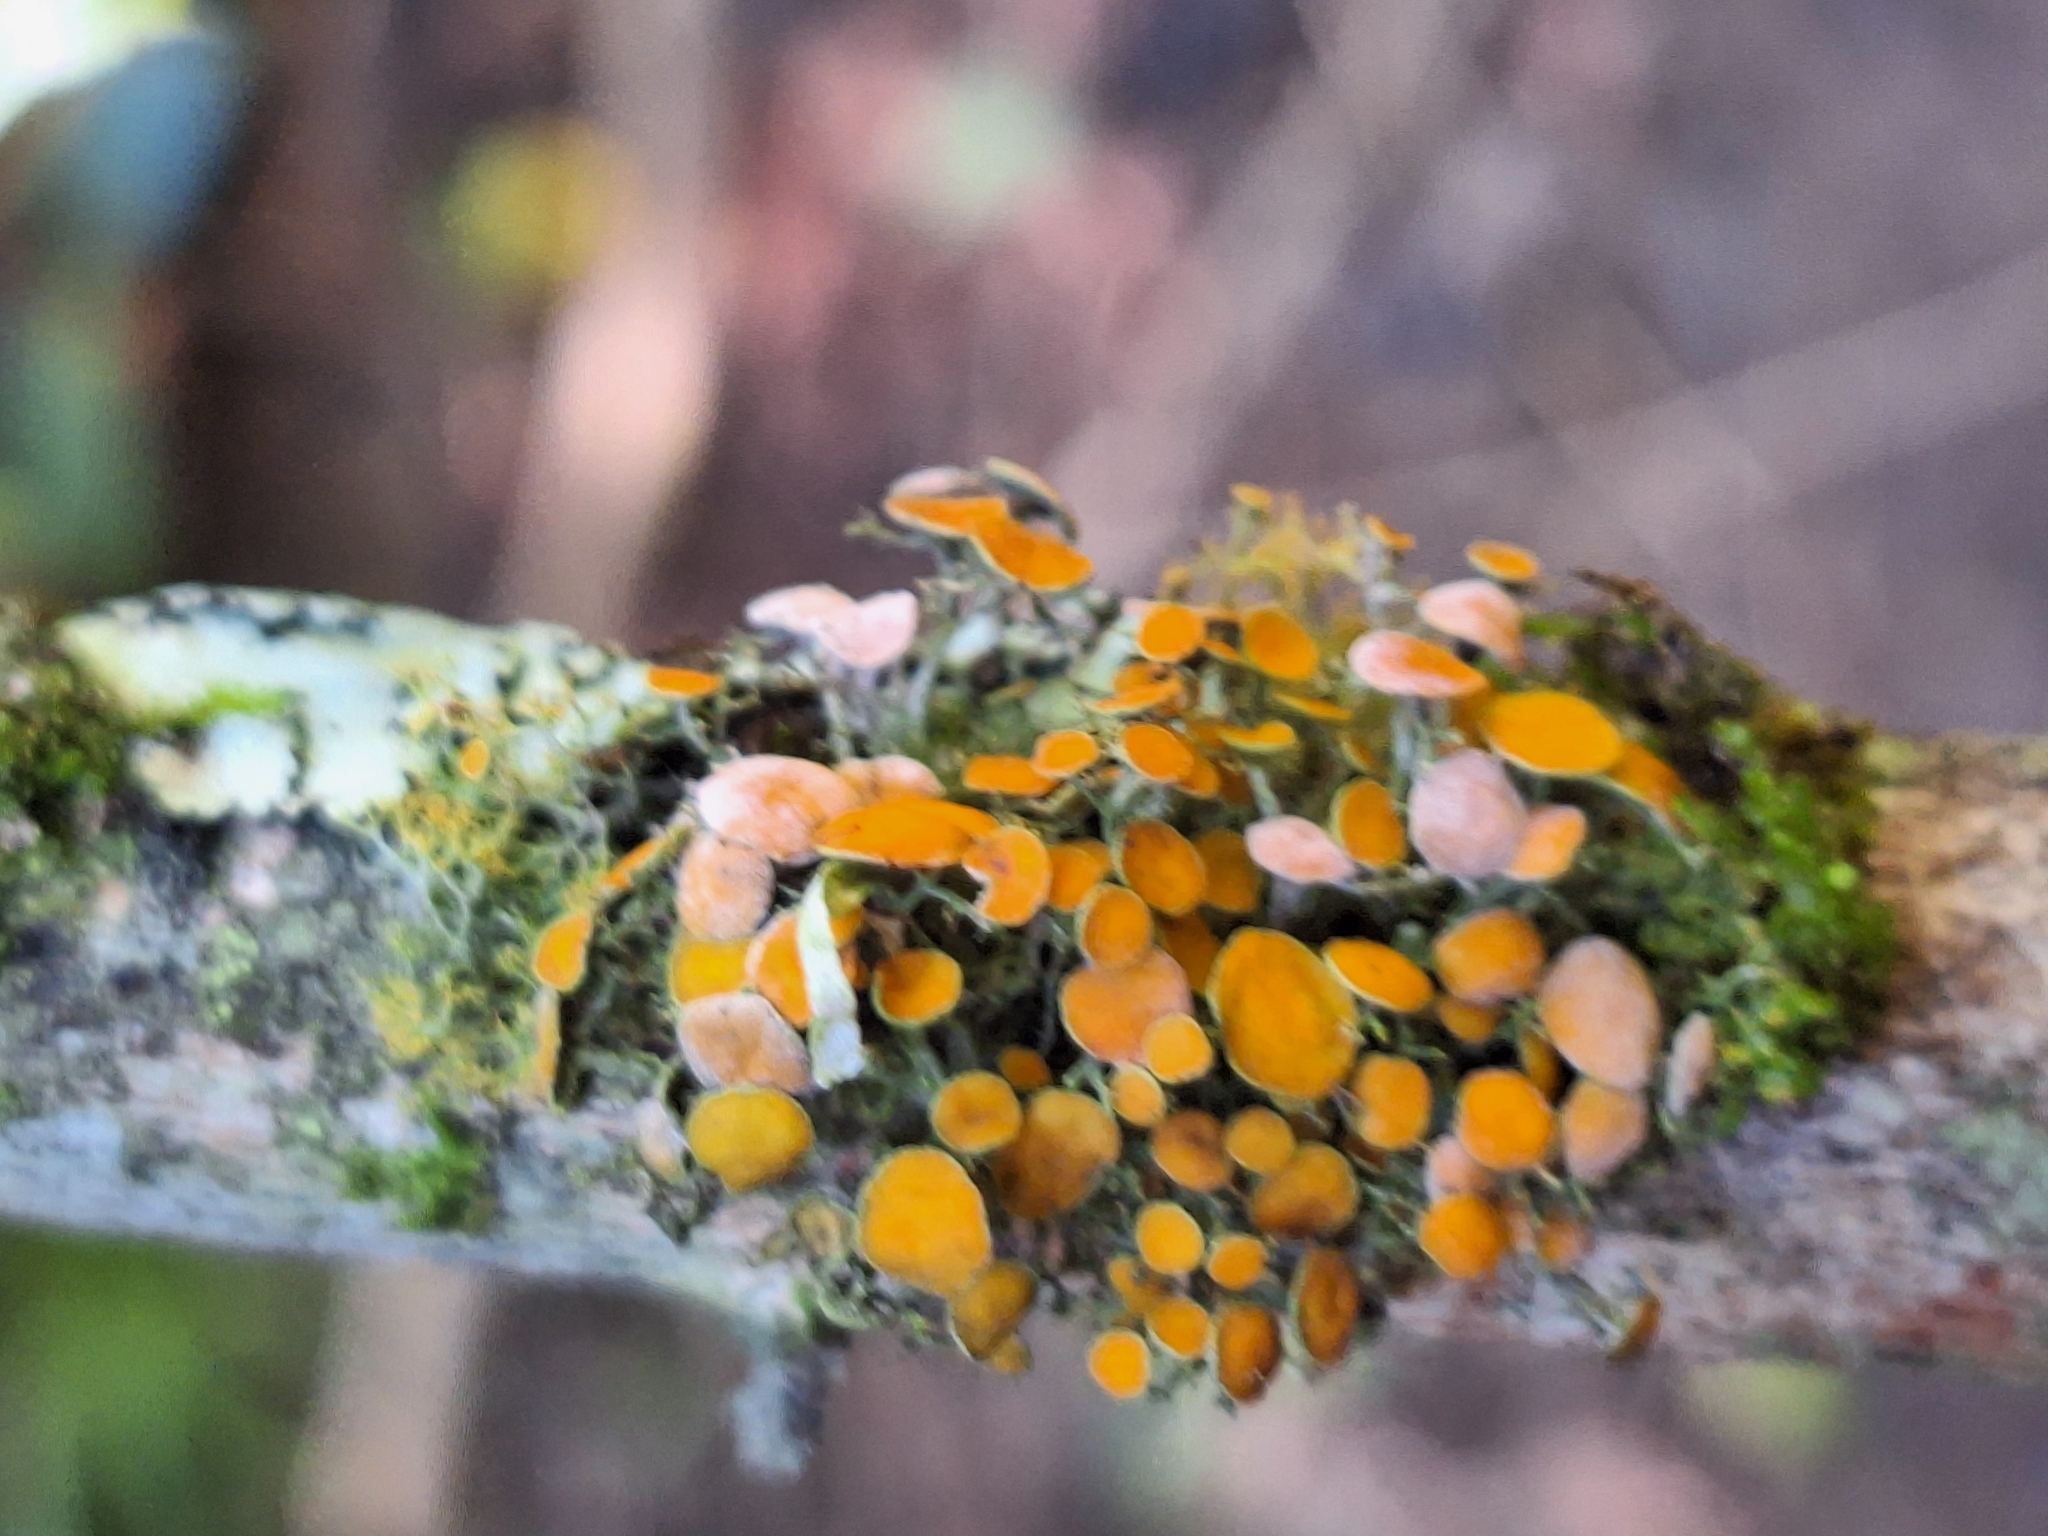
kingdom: Fungi
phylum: Ascomycota
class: Lecanoromycetes
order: Teloschistales
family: Teloschistaceae
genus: Niorma
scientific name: Niorma chrysophthalma
